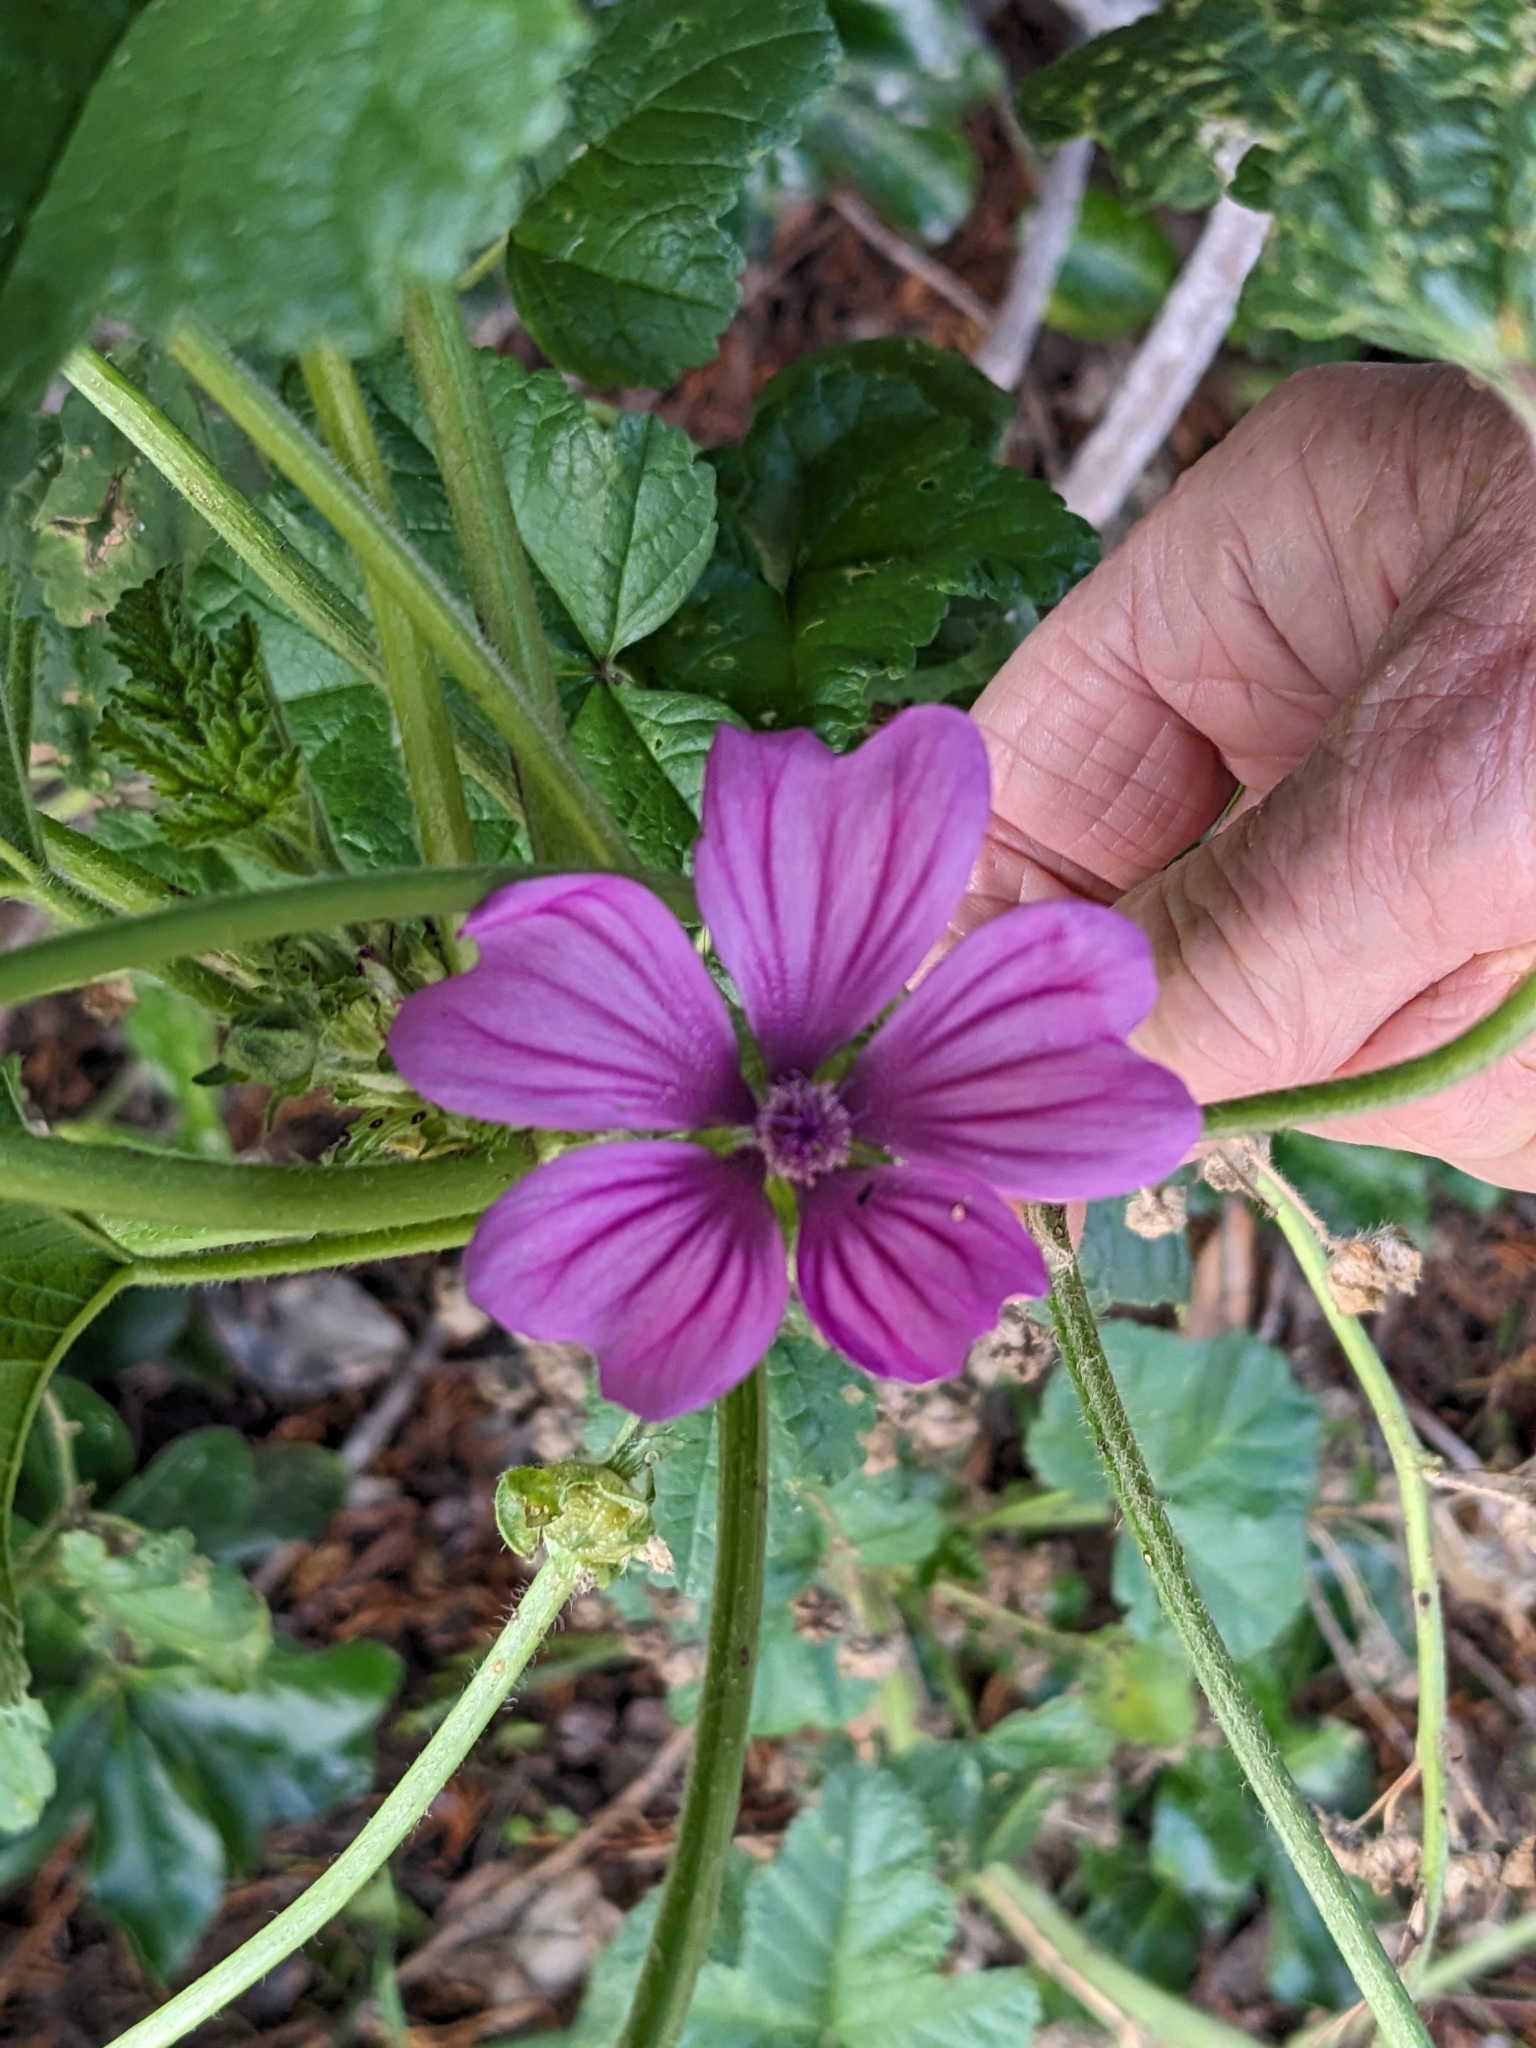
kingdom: Plantae
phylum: Tracheophyta
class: Magnoliopsida
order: Malvales
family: Malvaceae
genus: Malva
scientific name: Malva sylvestris
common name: Common mallow
